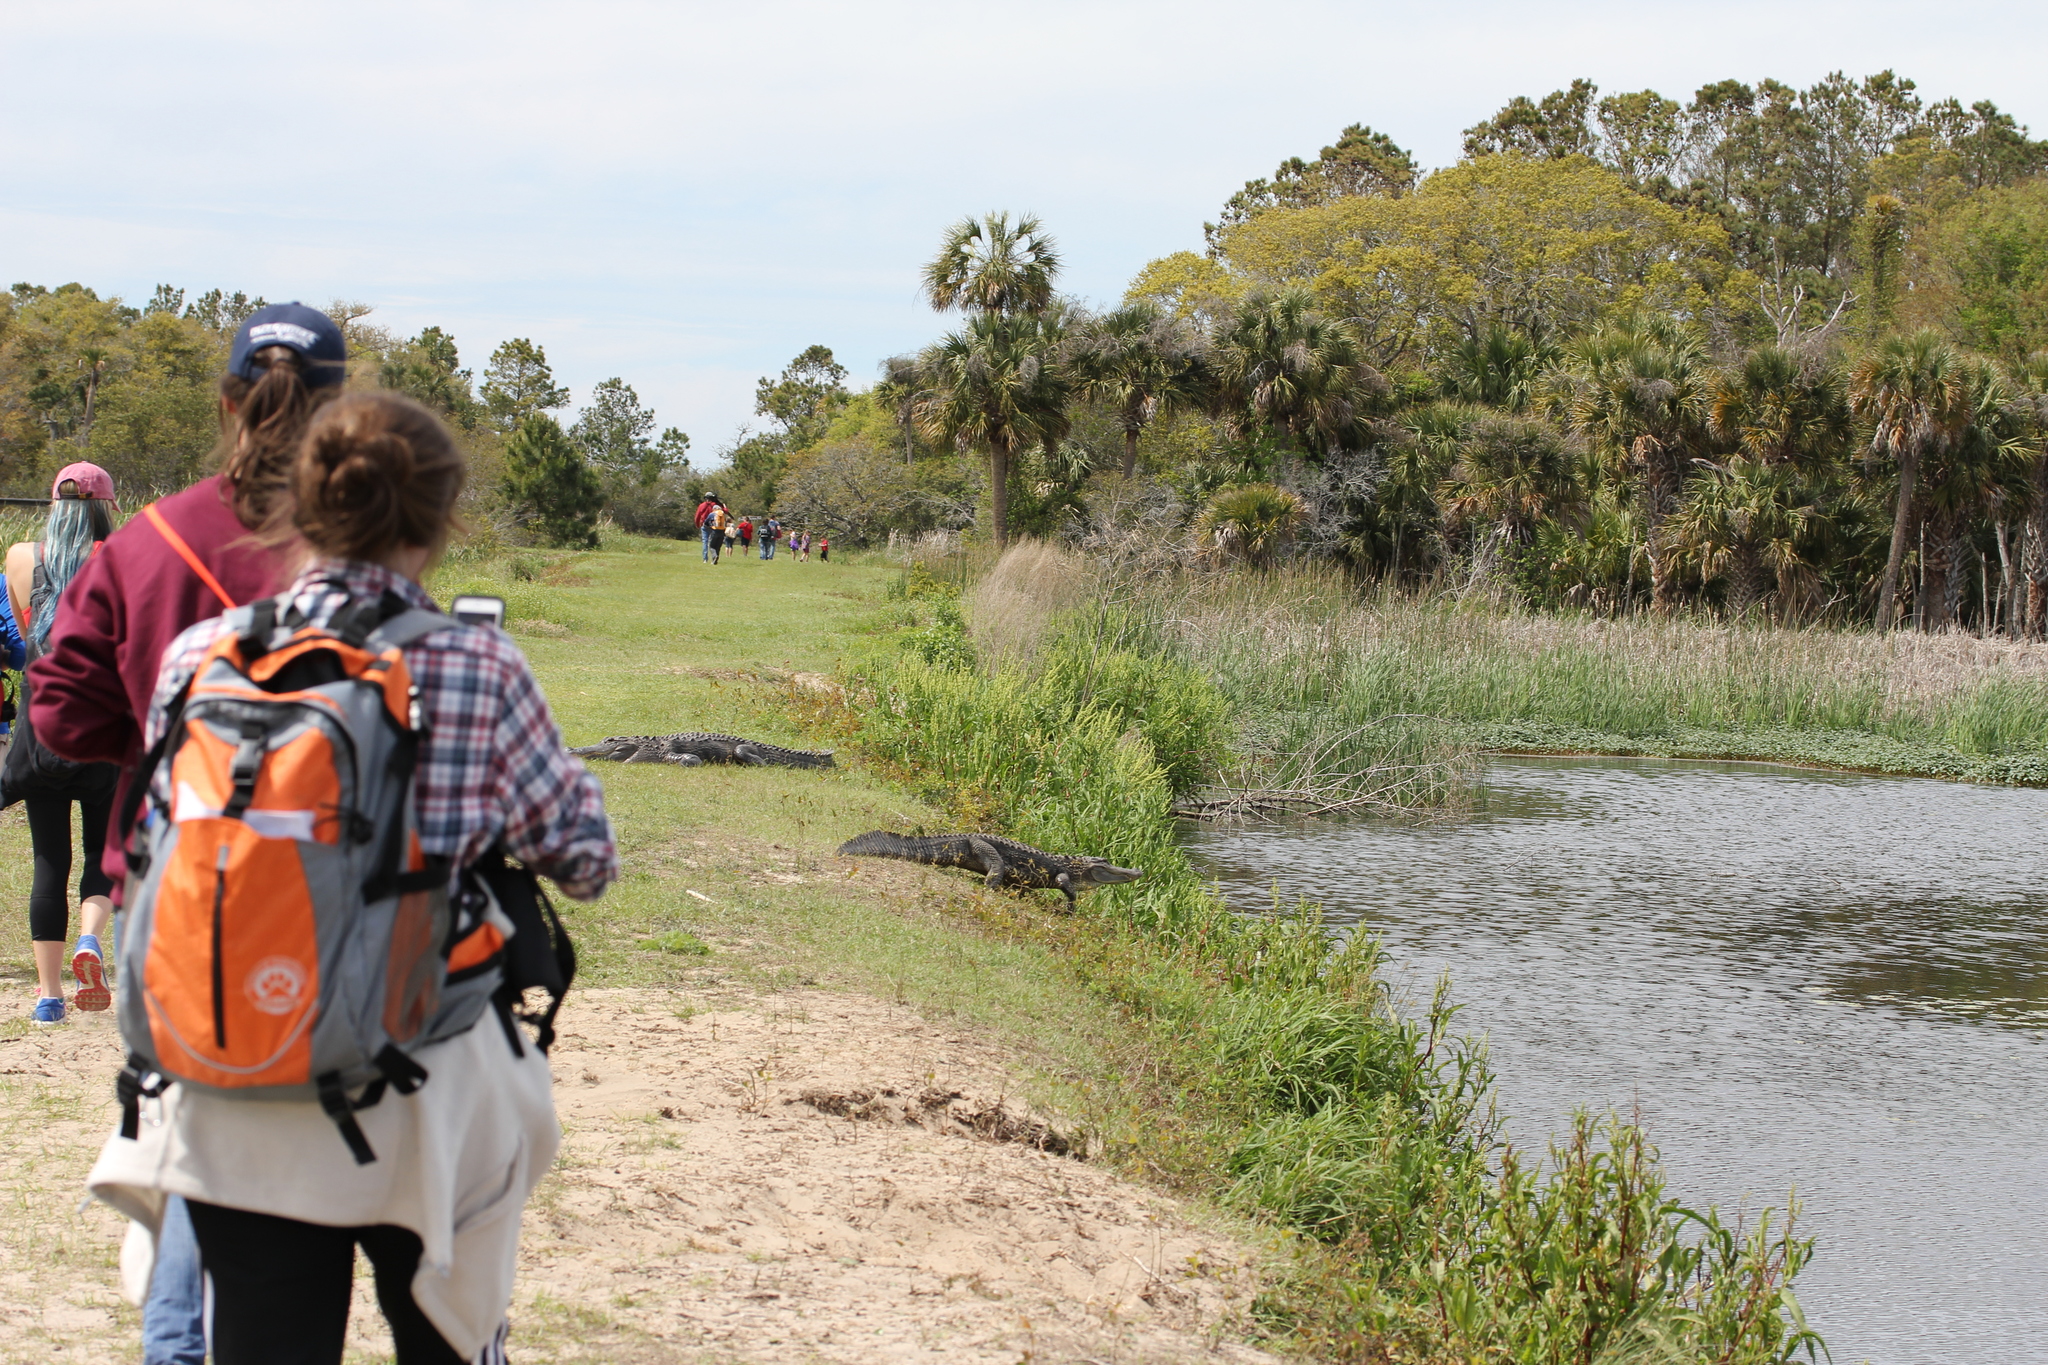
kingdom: Animalia
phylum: Chordata
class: Crocodylia
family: Alligatoridae
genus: Alligator
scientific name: Alligator mississippiensis
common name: American alligator
